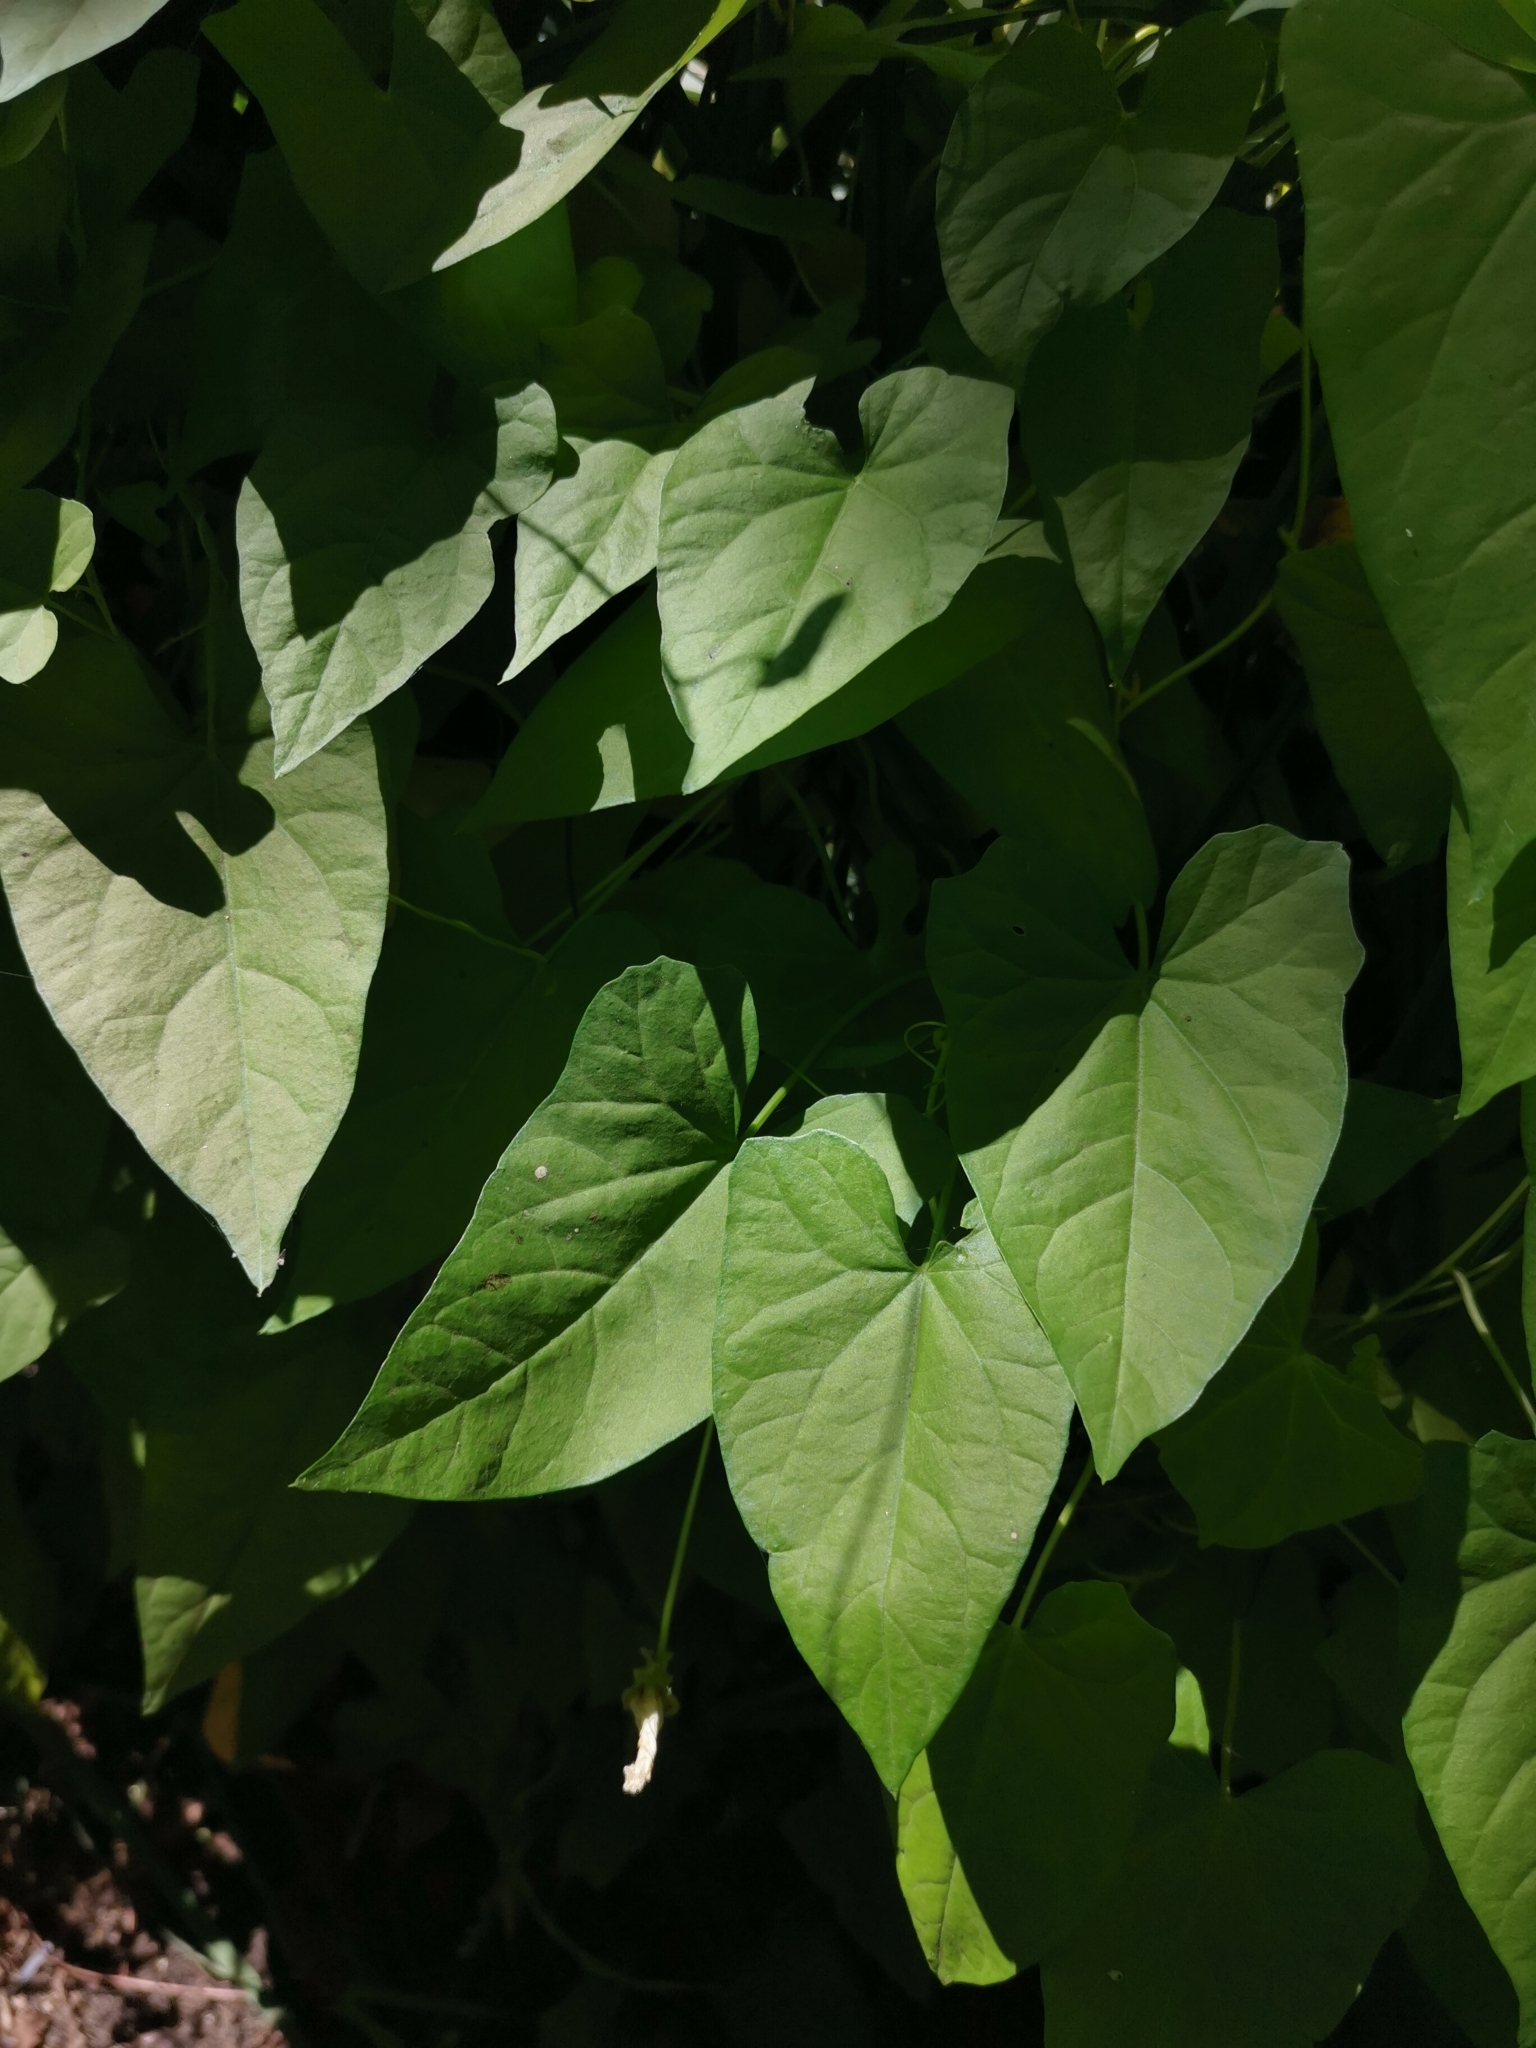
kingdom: Plantae
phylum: Tracheophyta
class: Magnoliopsida
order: Solanales
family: Convolvulaceae
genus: Calystegia
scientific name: Calystegia sepium
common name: Hedge bindweed
